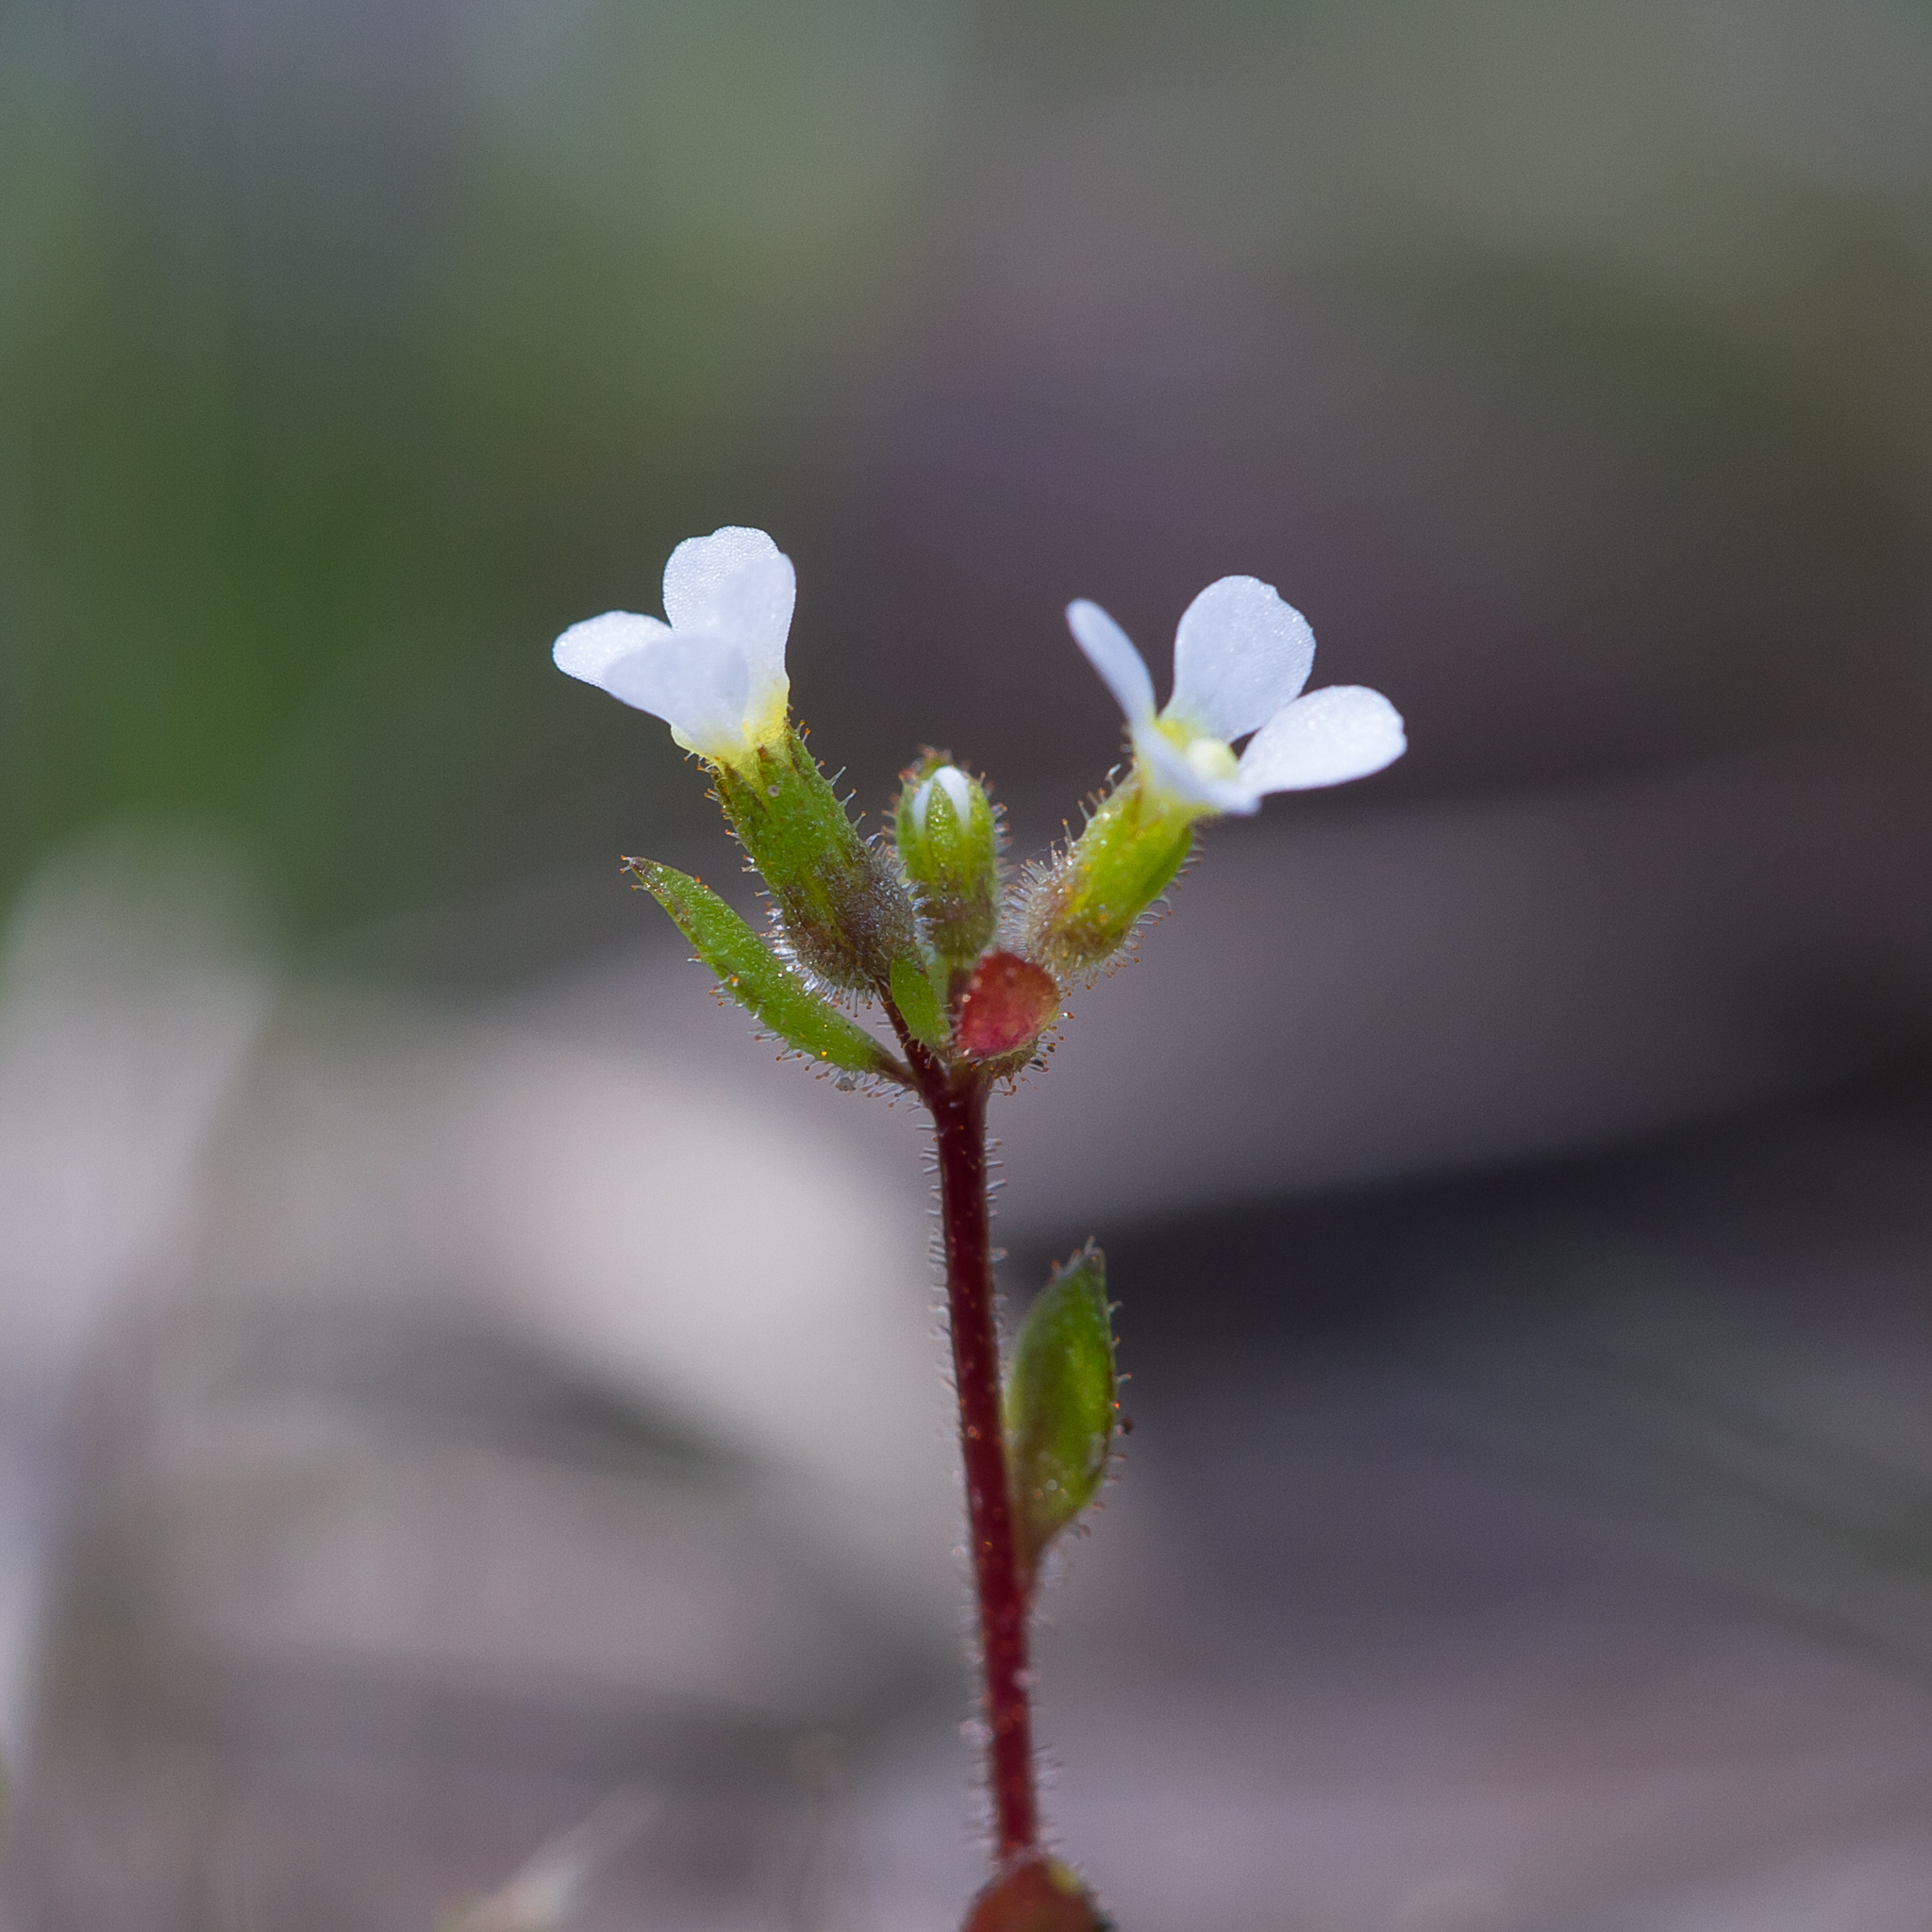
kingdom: Plantae
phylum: Tracheophyta
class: Magnoliopsida
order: Asterales
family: Stylidiaceae
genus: Levenhookia
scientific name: Levenhookia dubia
